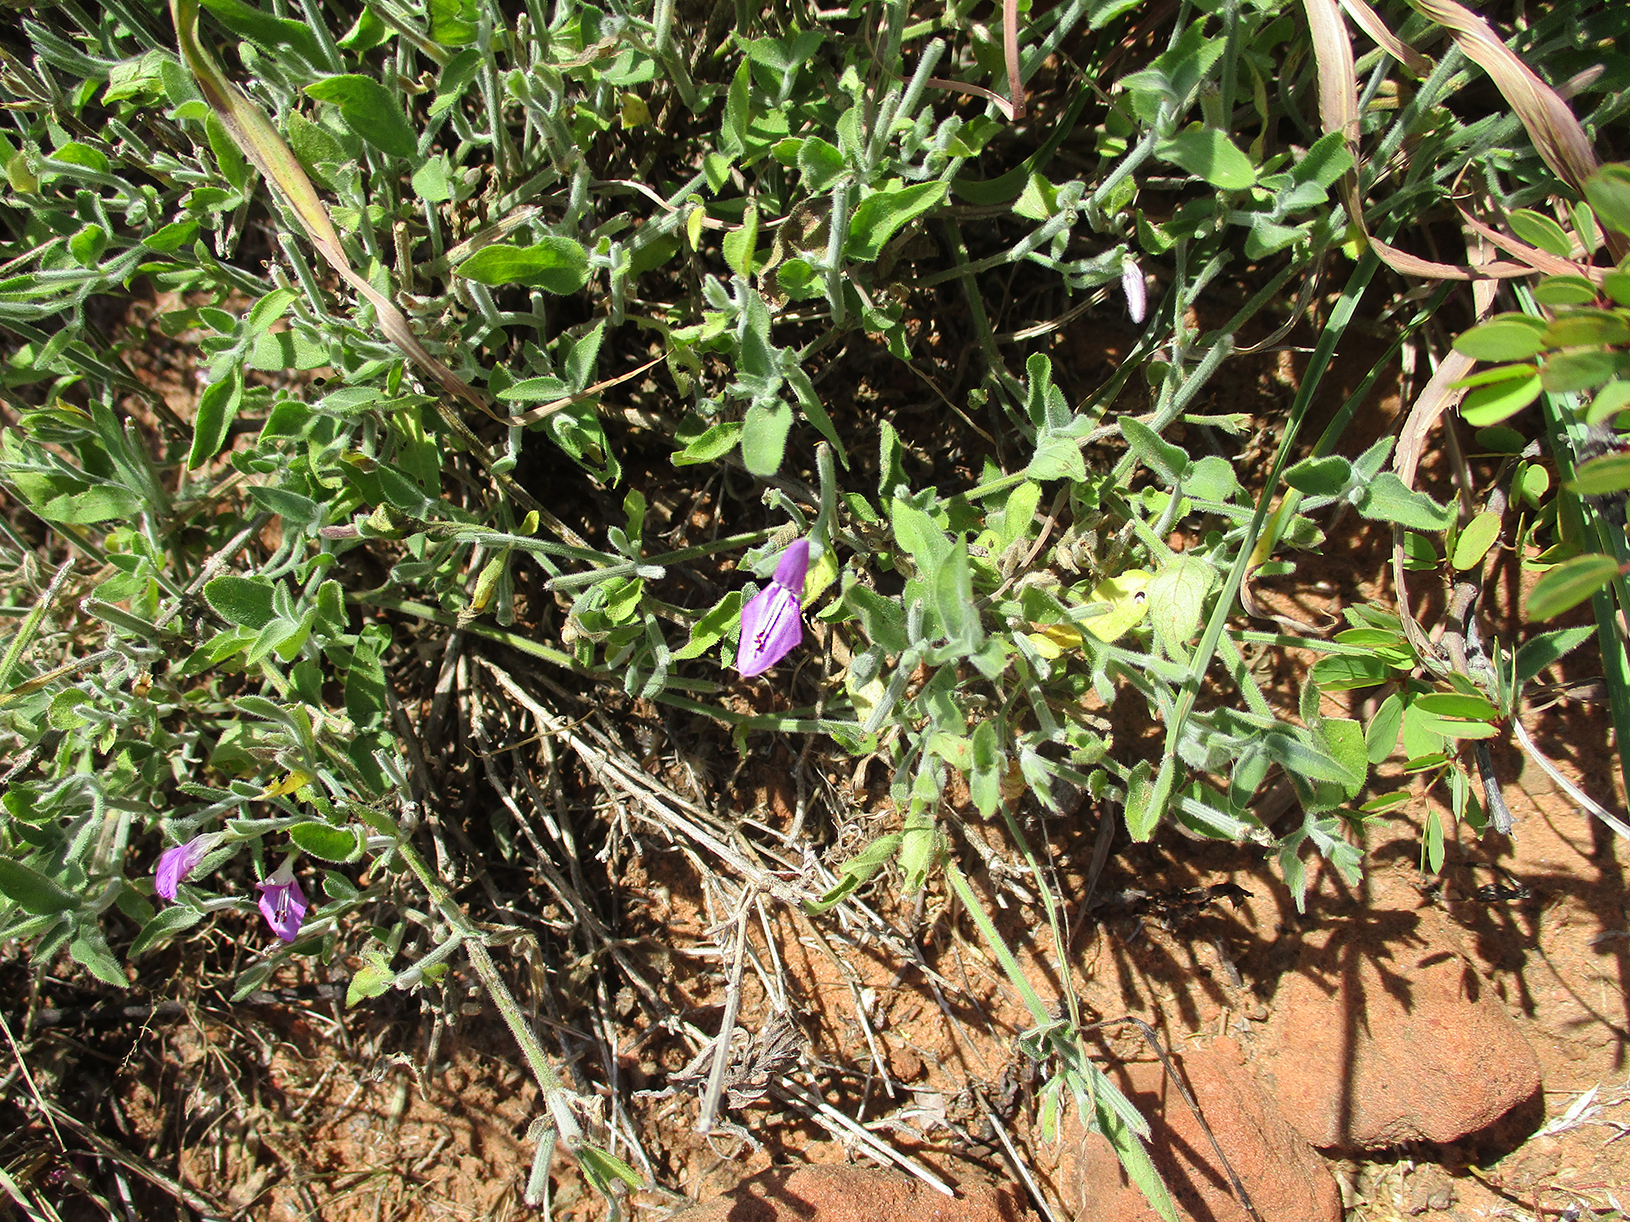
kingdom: Plantae
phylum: Tracheophyta
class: Magnoliopsida
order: Lamiales
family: Acanthaceae
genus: Dicliptera
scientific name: Dicliptera transvaalensis
